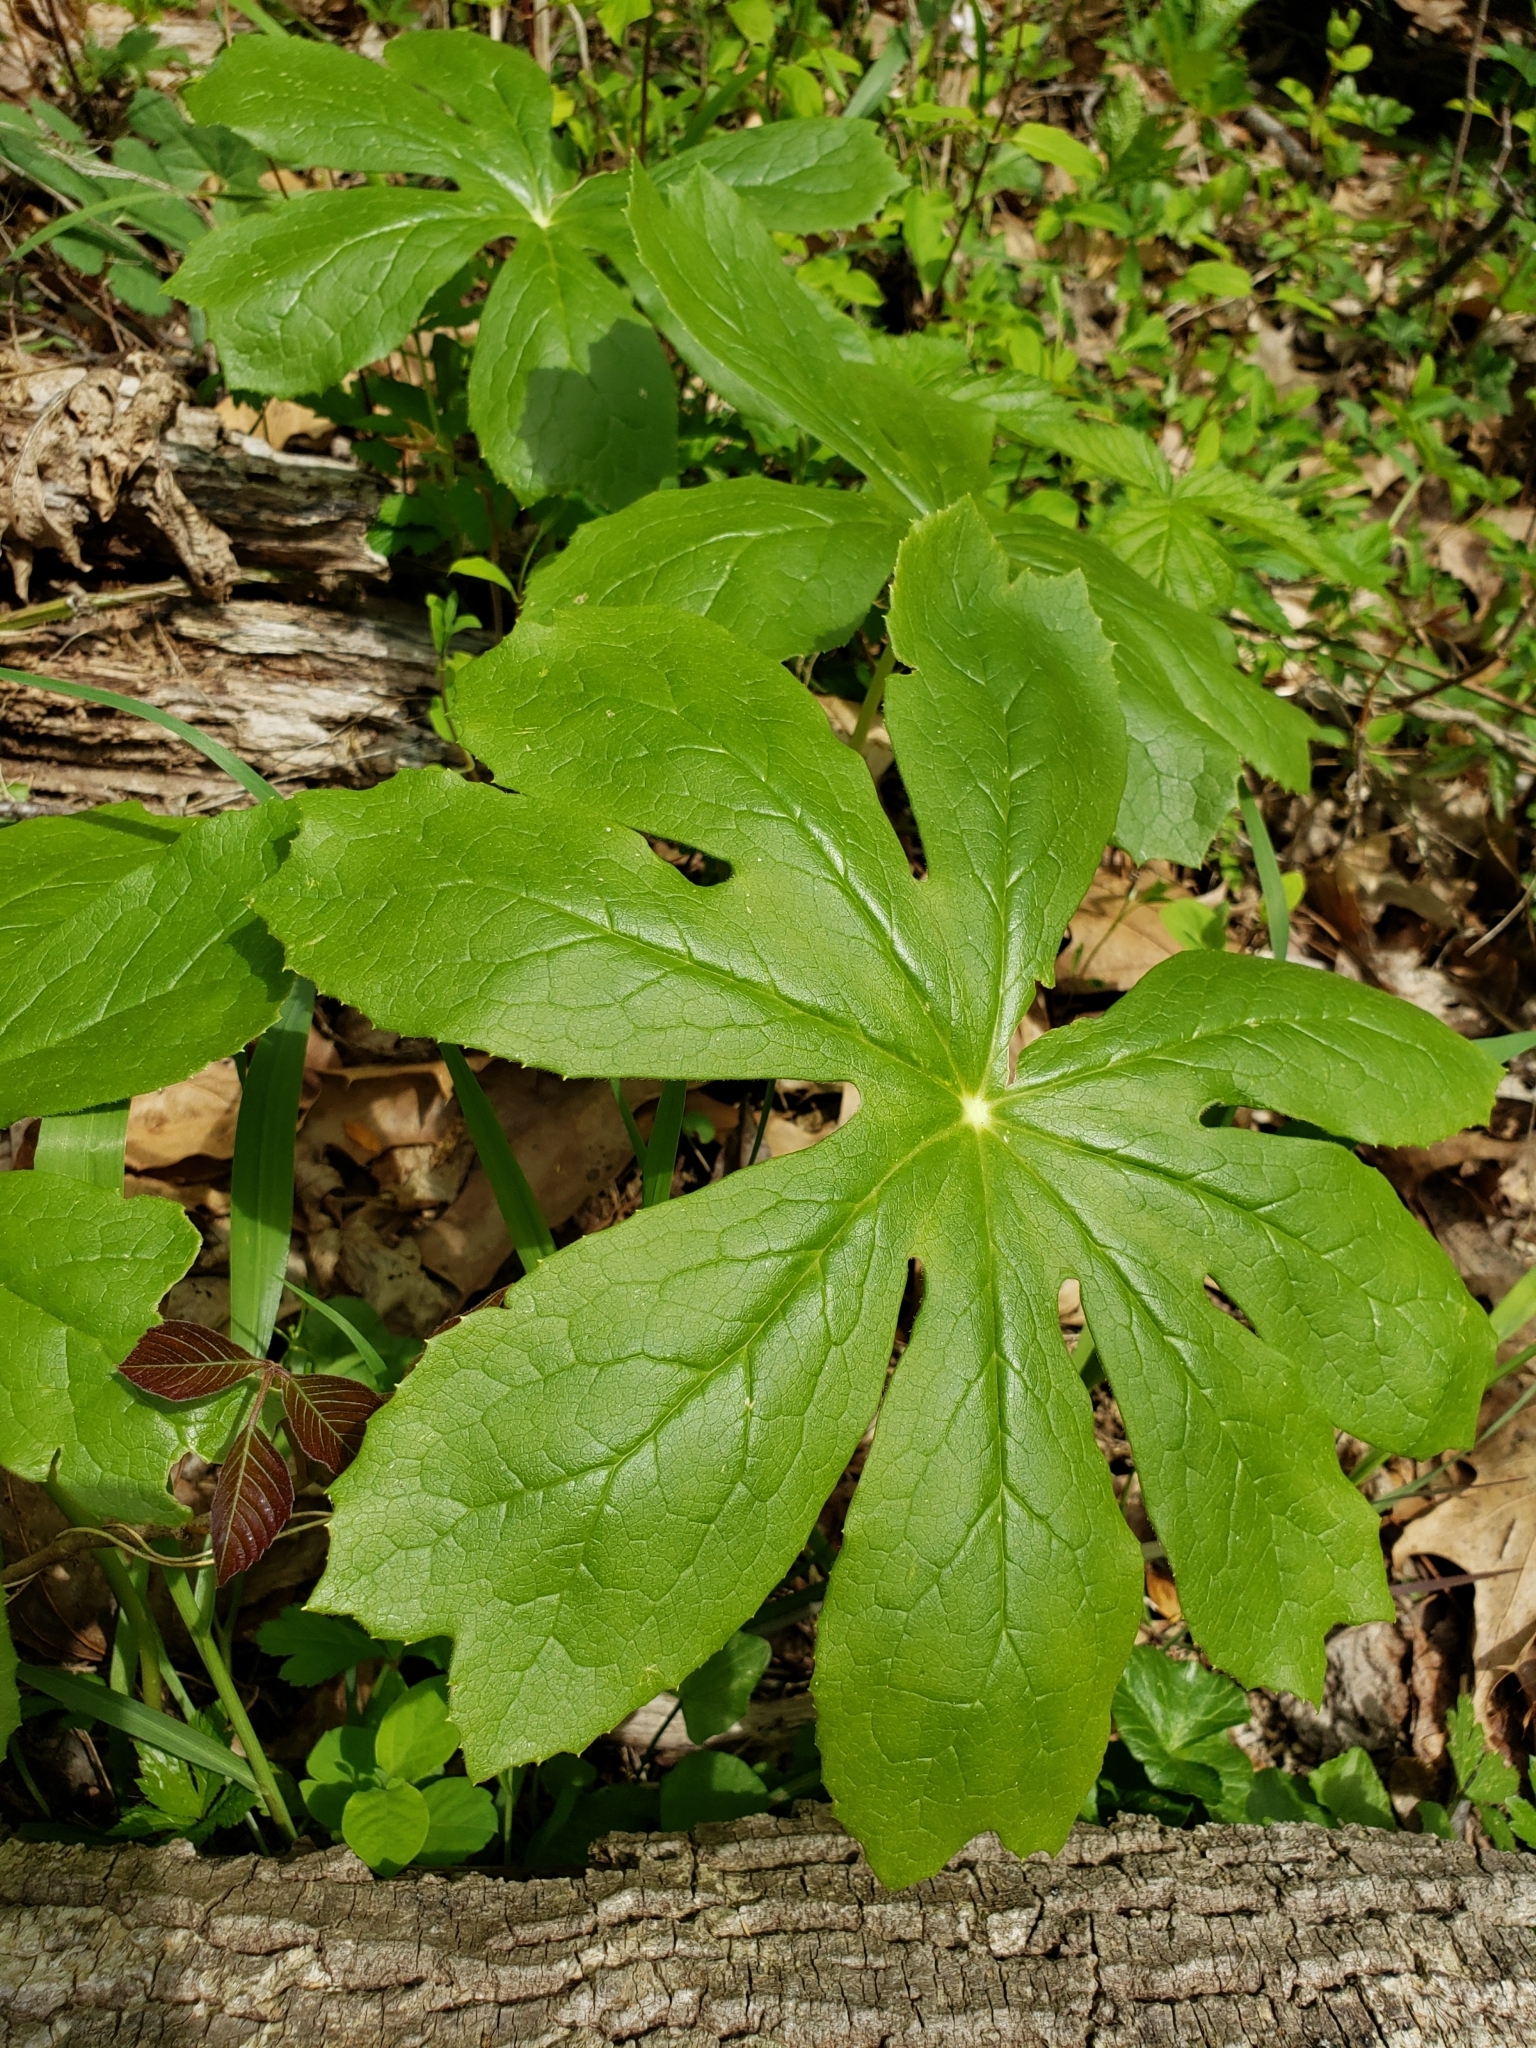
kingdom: Plantae
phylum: Tracheophyta
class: Magnoliopsida
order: Ranunculales
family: Berberidaceae
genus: Podophyllum
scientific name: Podophyllum peltatum
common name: Wild mandrake
